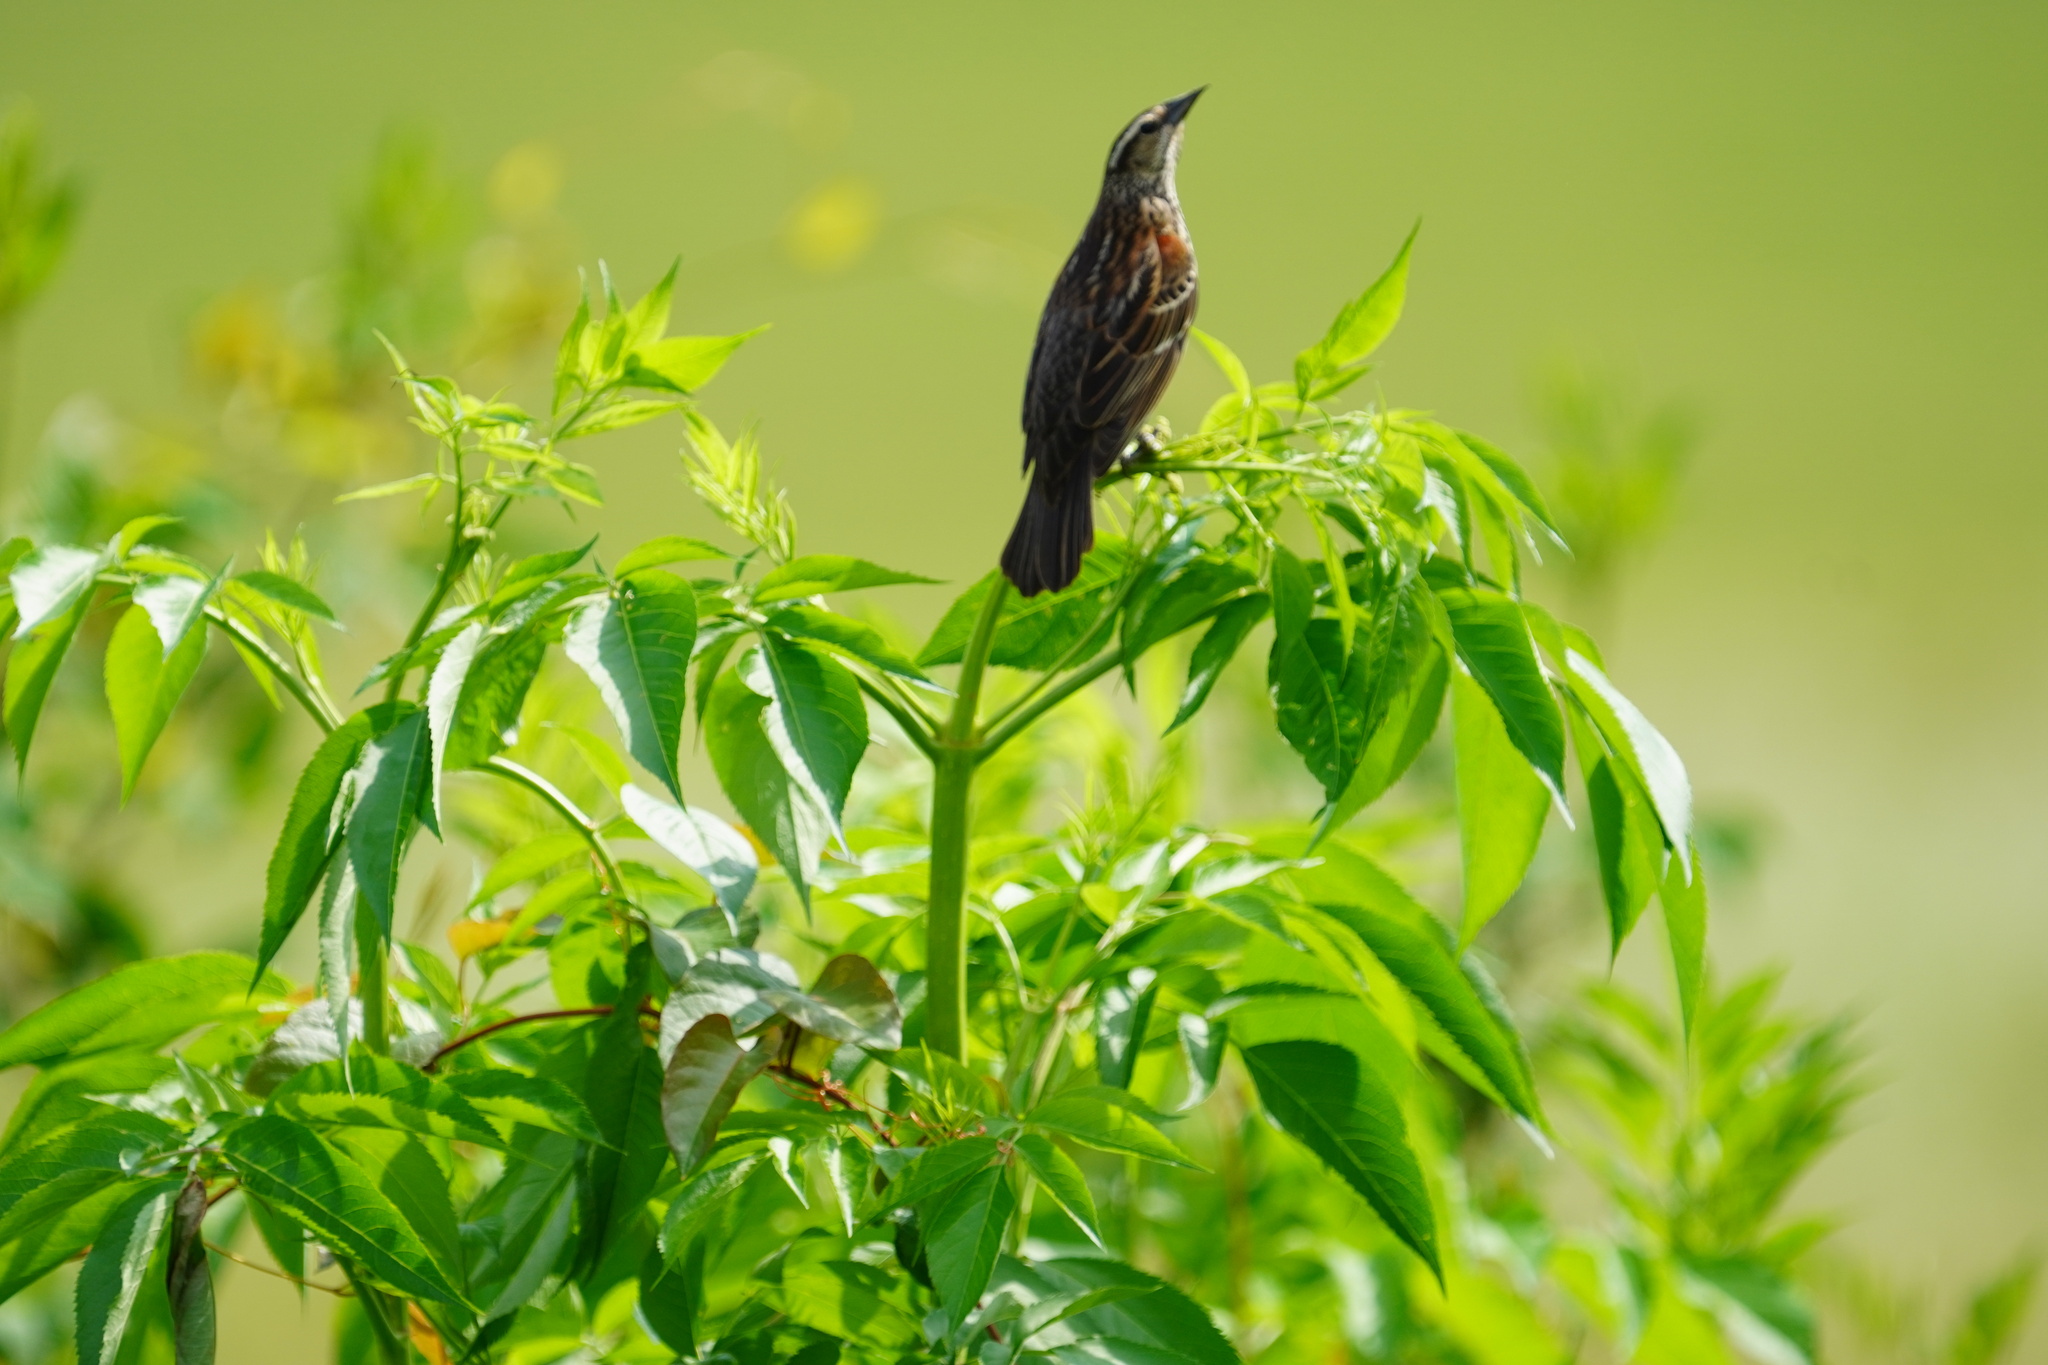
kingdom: Animalia
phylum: Chordata
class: Aves
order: Passeriformes
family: Icteridae
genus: Agelaius
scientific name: Agelaius phoeniceus
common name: Red-winged blackbird
